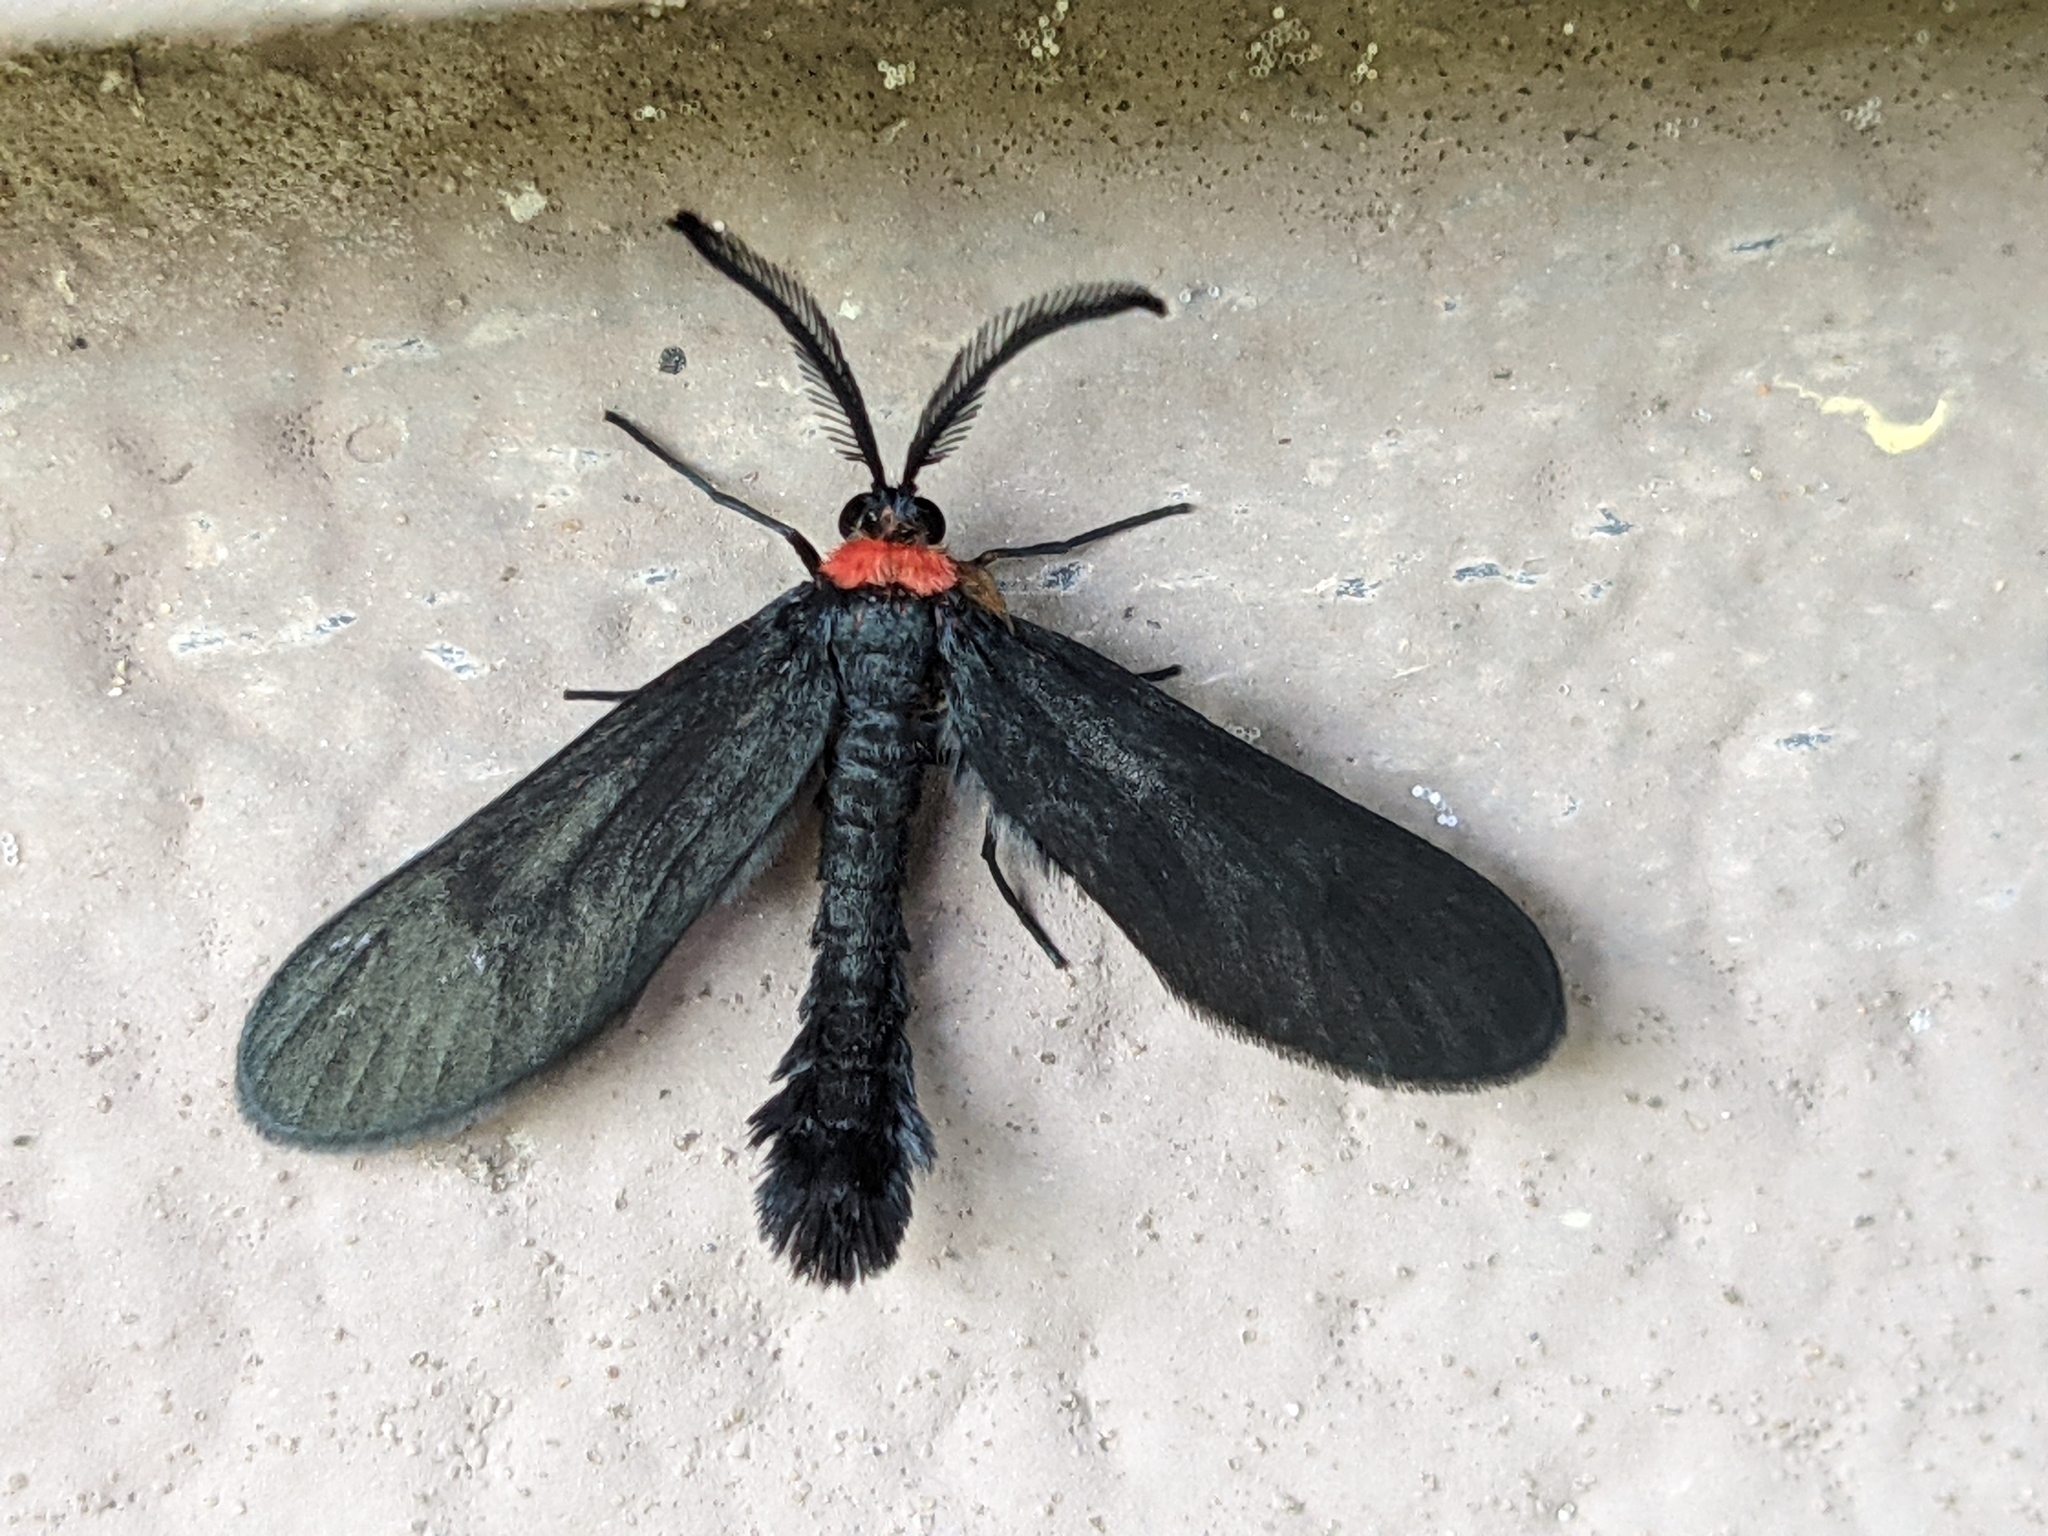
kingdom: Animalia
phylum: Arthropoda
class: Insecta
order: Lepidoptera
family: Zygaenidae
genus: Harrisina
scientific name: Harrisina americana
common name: Grapeleaf skeletonizer moth
